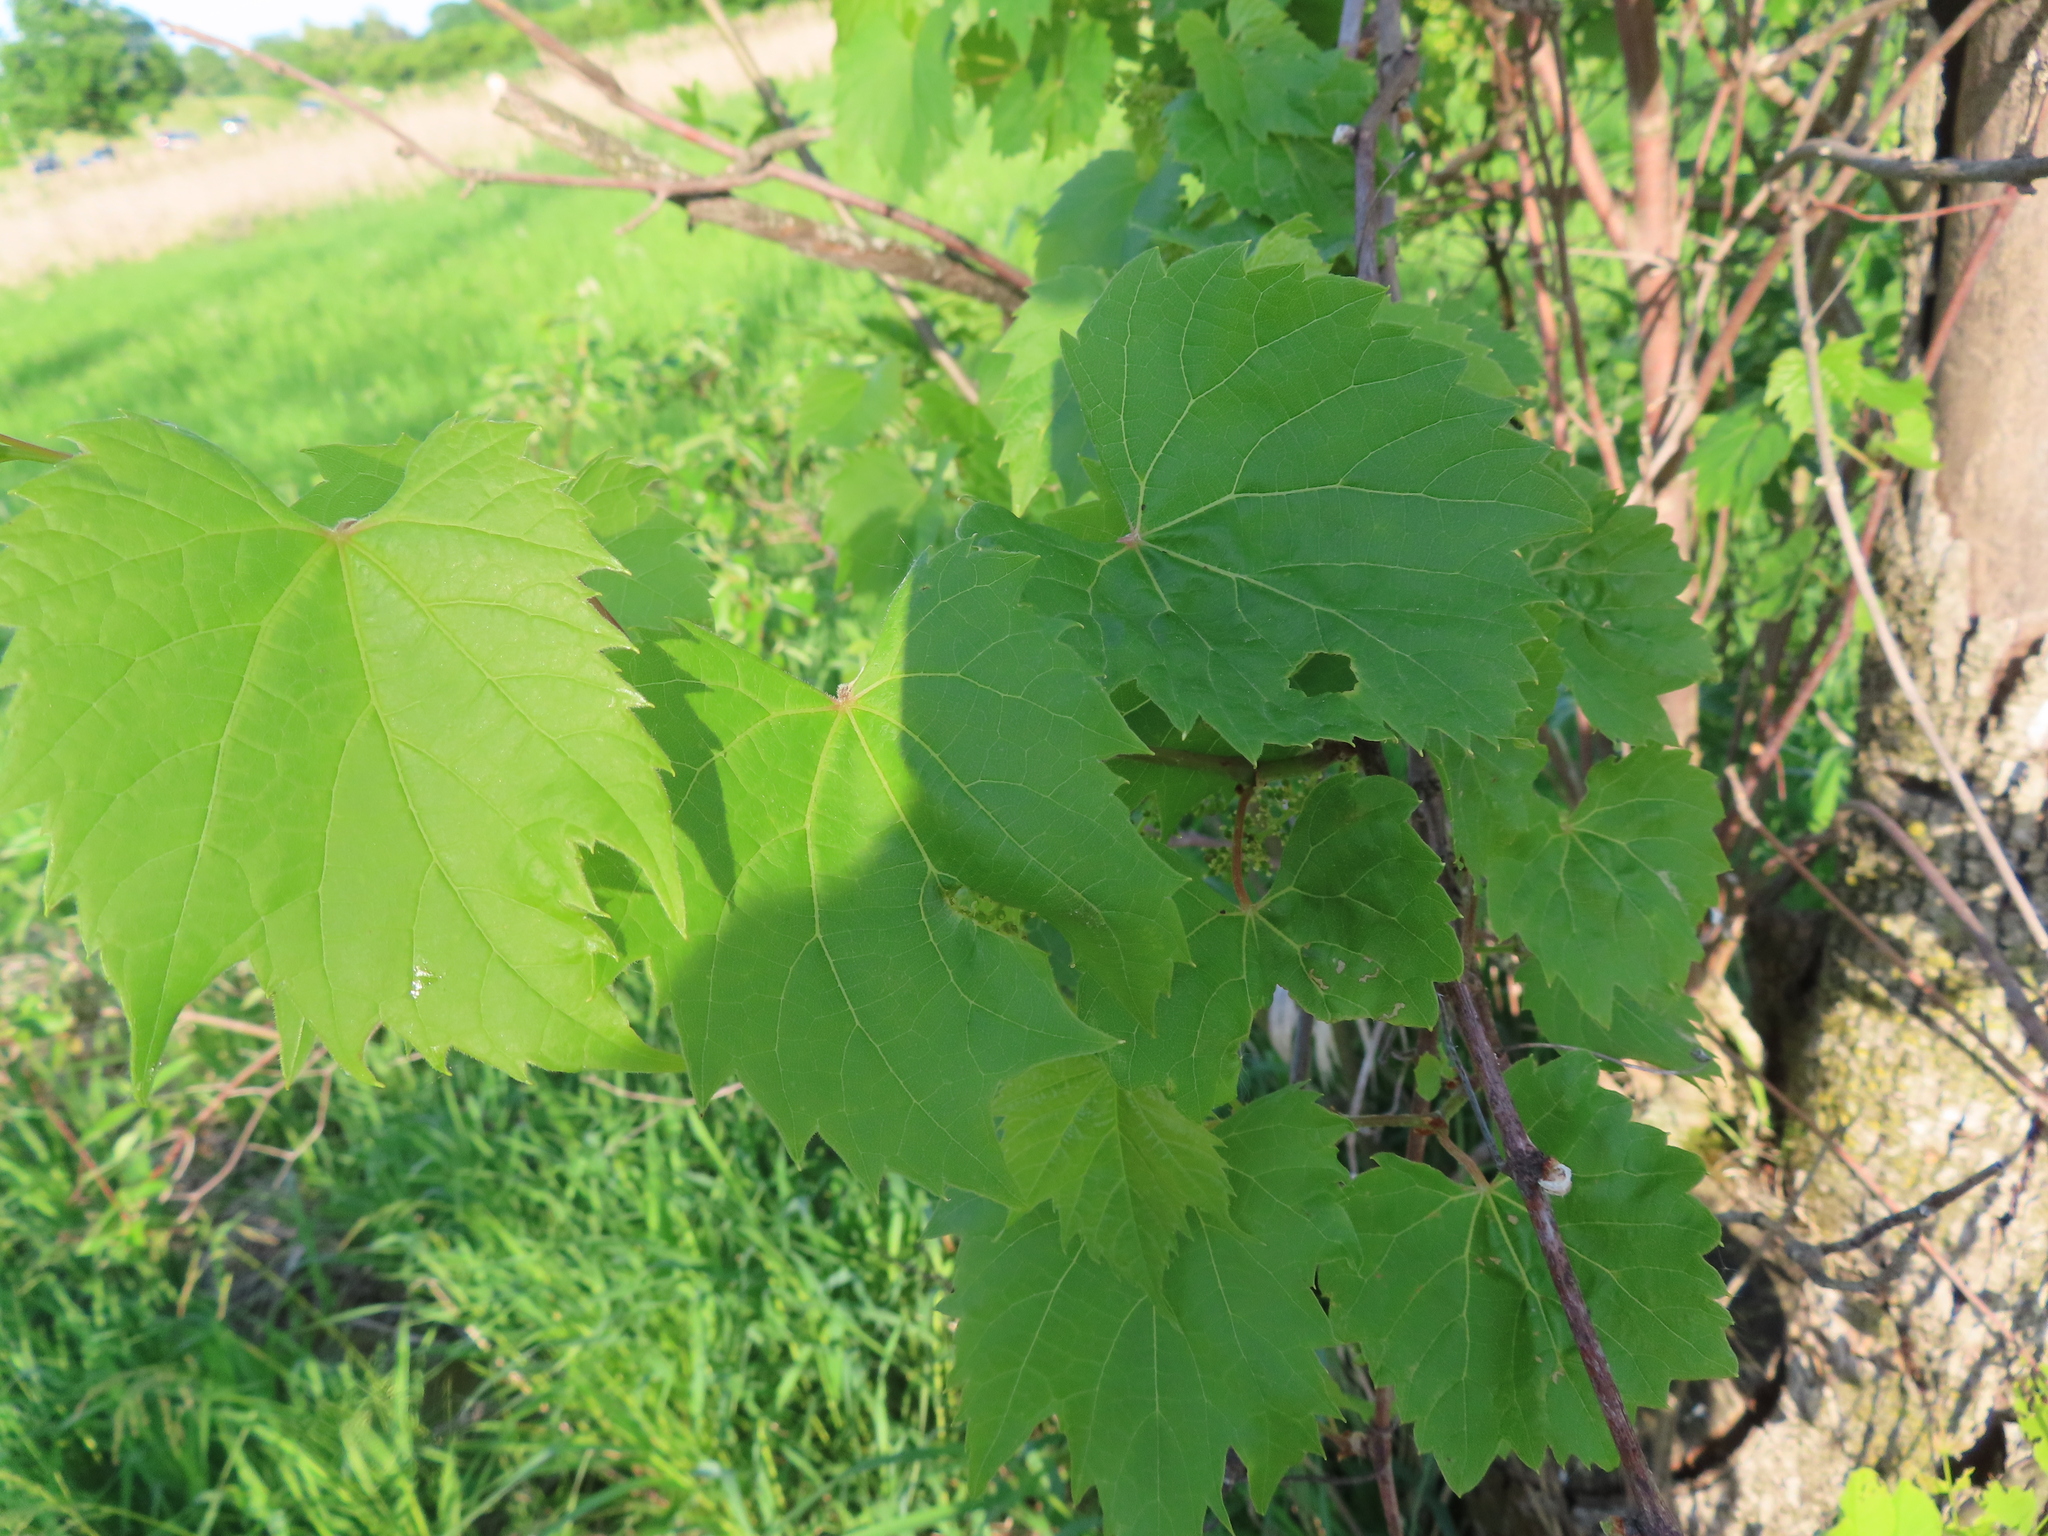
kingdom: Plantae
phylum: Tracheophyta
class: Magnoliopsida
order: Vitales
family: Vitaceae
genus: Vitis
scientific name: Vitis riparia
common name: Frost grape
